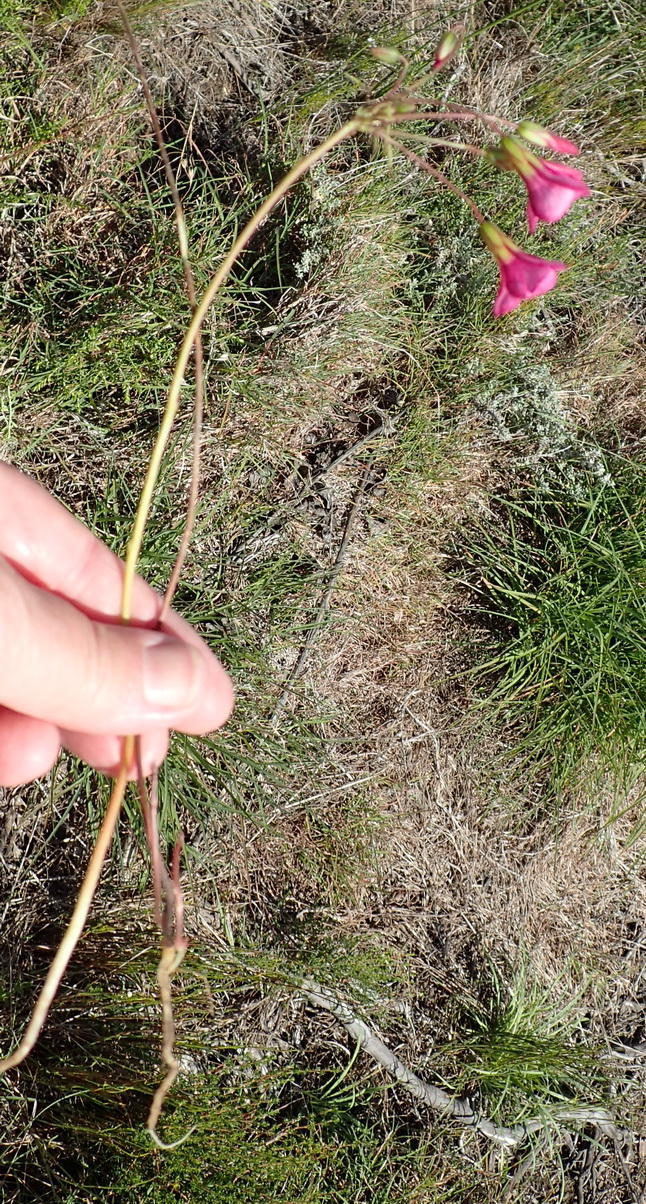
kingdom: Plantae
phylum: Tracheophyta
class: Magnoliopsida
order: Oxalidales
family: Oxalidaceae
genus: Oxalis
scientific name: Oxalis pendulifolia
